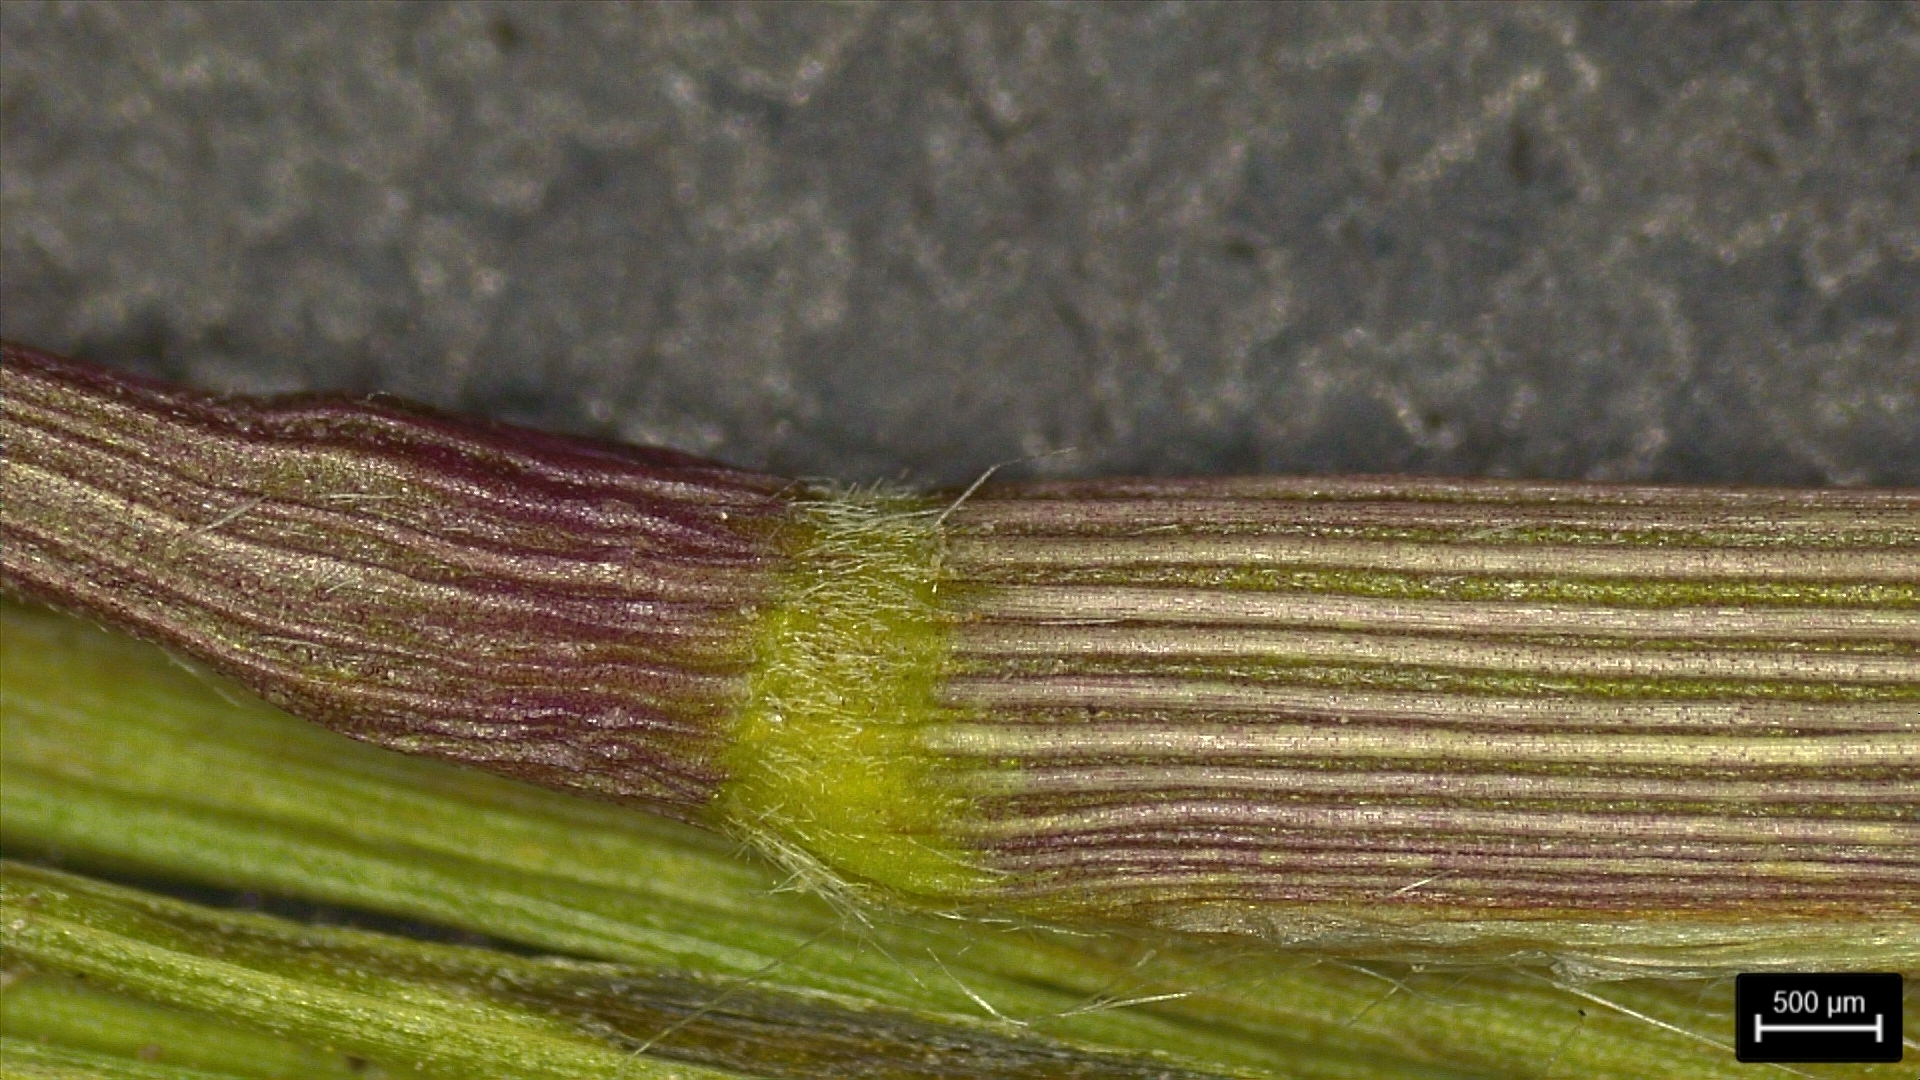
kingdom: Plantae
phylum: Tracheophyta
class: Liliopsida
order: Poales
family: Poaceae
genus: Dichanthelium
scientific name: Dichanthelium scribnerianum
